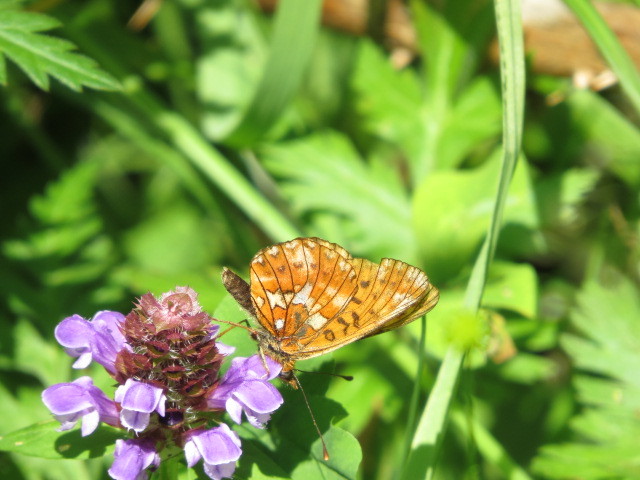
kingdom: Animalia
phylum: Arthropoda
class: Insecta
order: Lepidoptera
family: Nymphalidae
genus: Clossiana
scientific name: Clossiana euphrosyne
